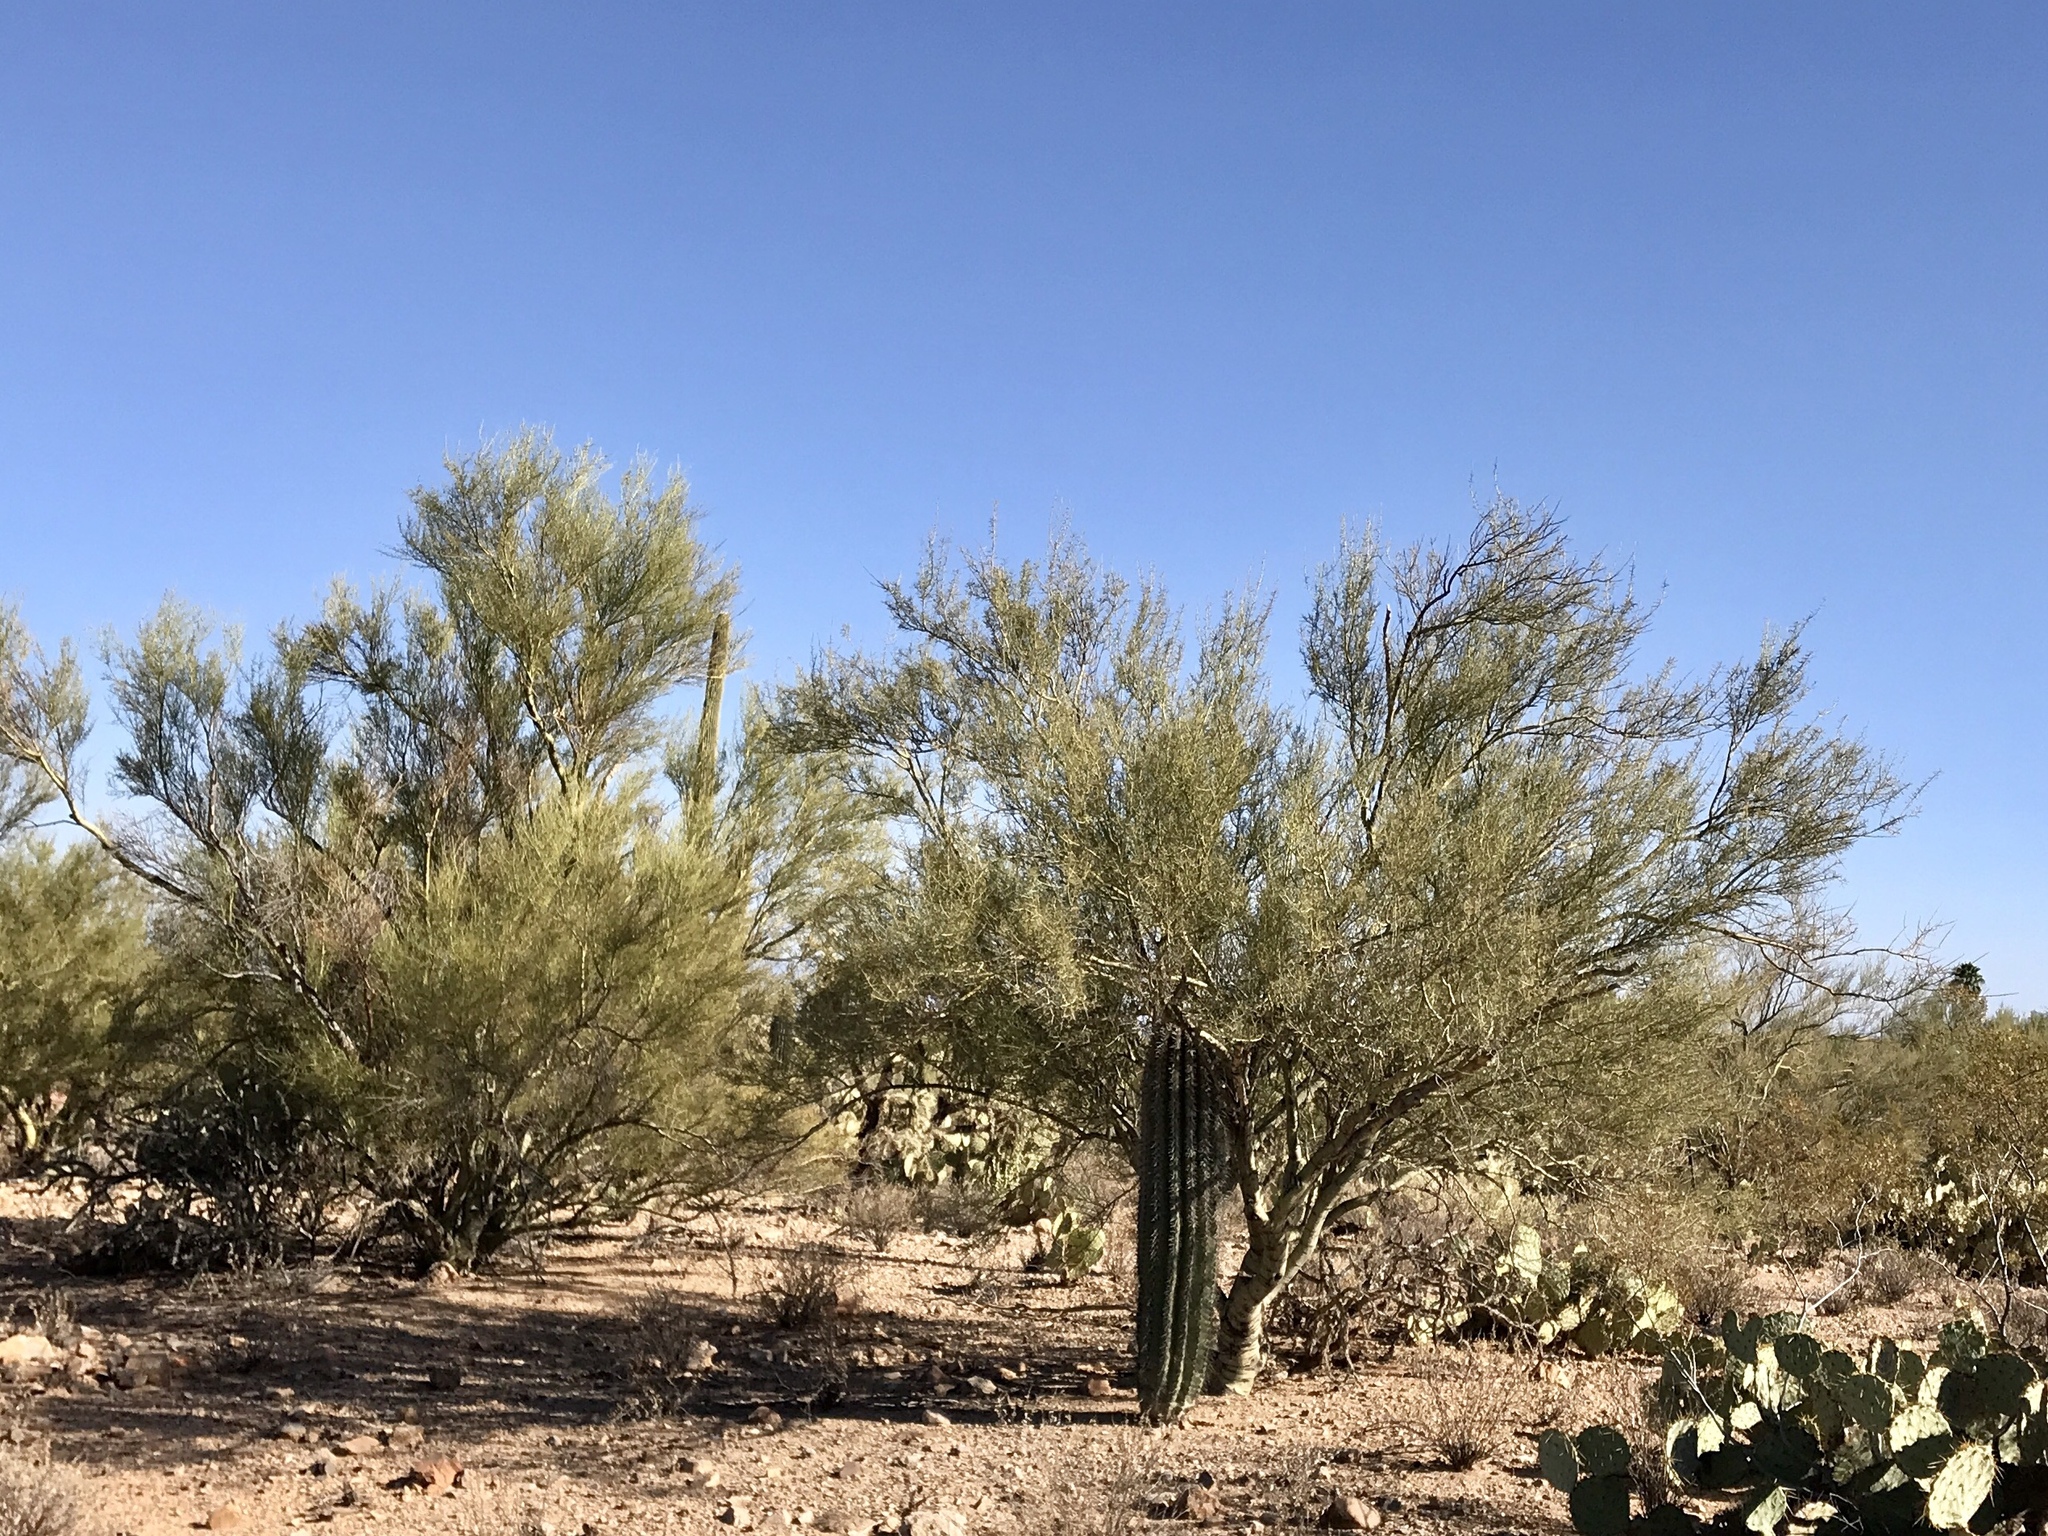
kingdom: Plantae
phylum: Tracheophyta
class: Magnoliopsida
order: Fabales
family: Fabaceae
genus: Parkinsonia
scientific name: Parkinsonia florida
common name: Blue paloverde
